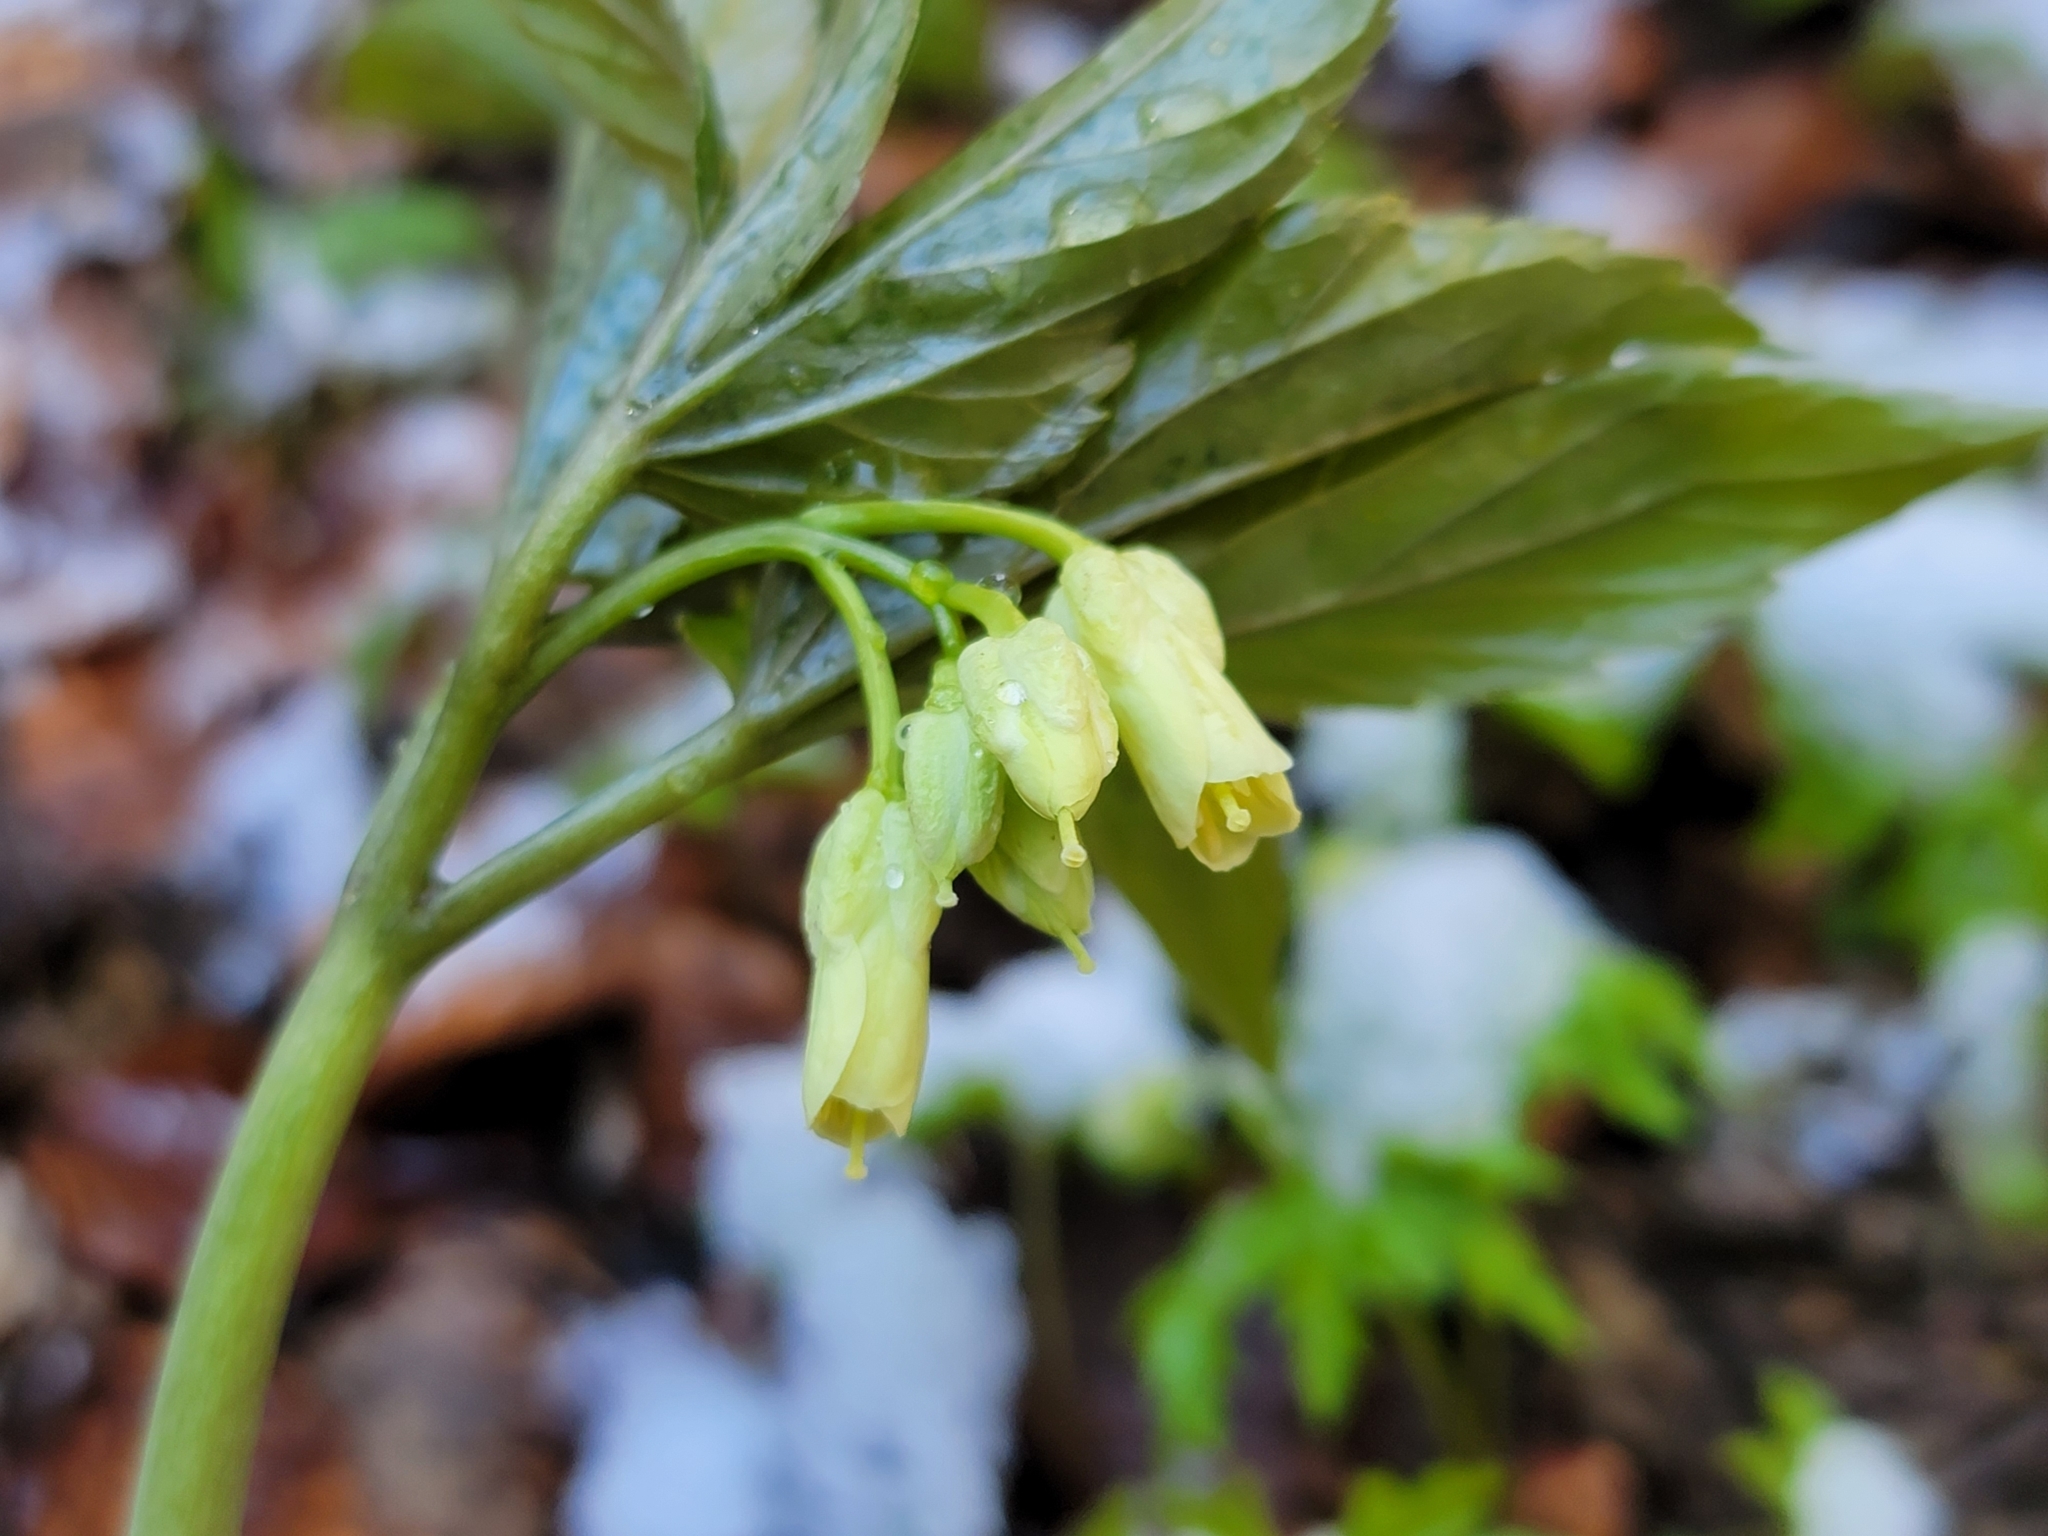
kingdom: Plantae
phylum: Tracheophyta
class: Magnoliopsida
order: Brassicales
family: Brassicaceae
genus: Cardamine
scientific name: Cardamine enneaphyllos
